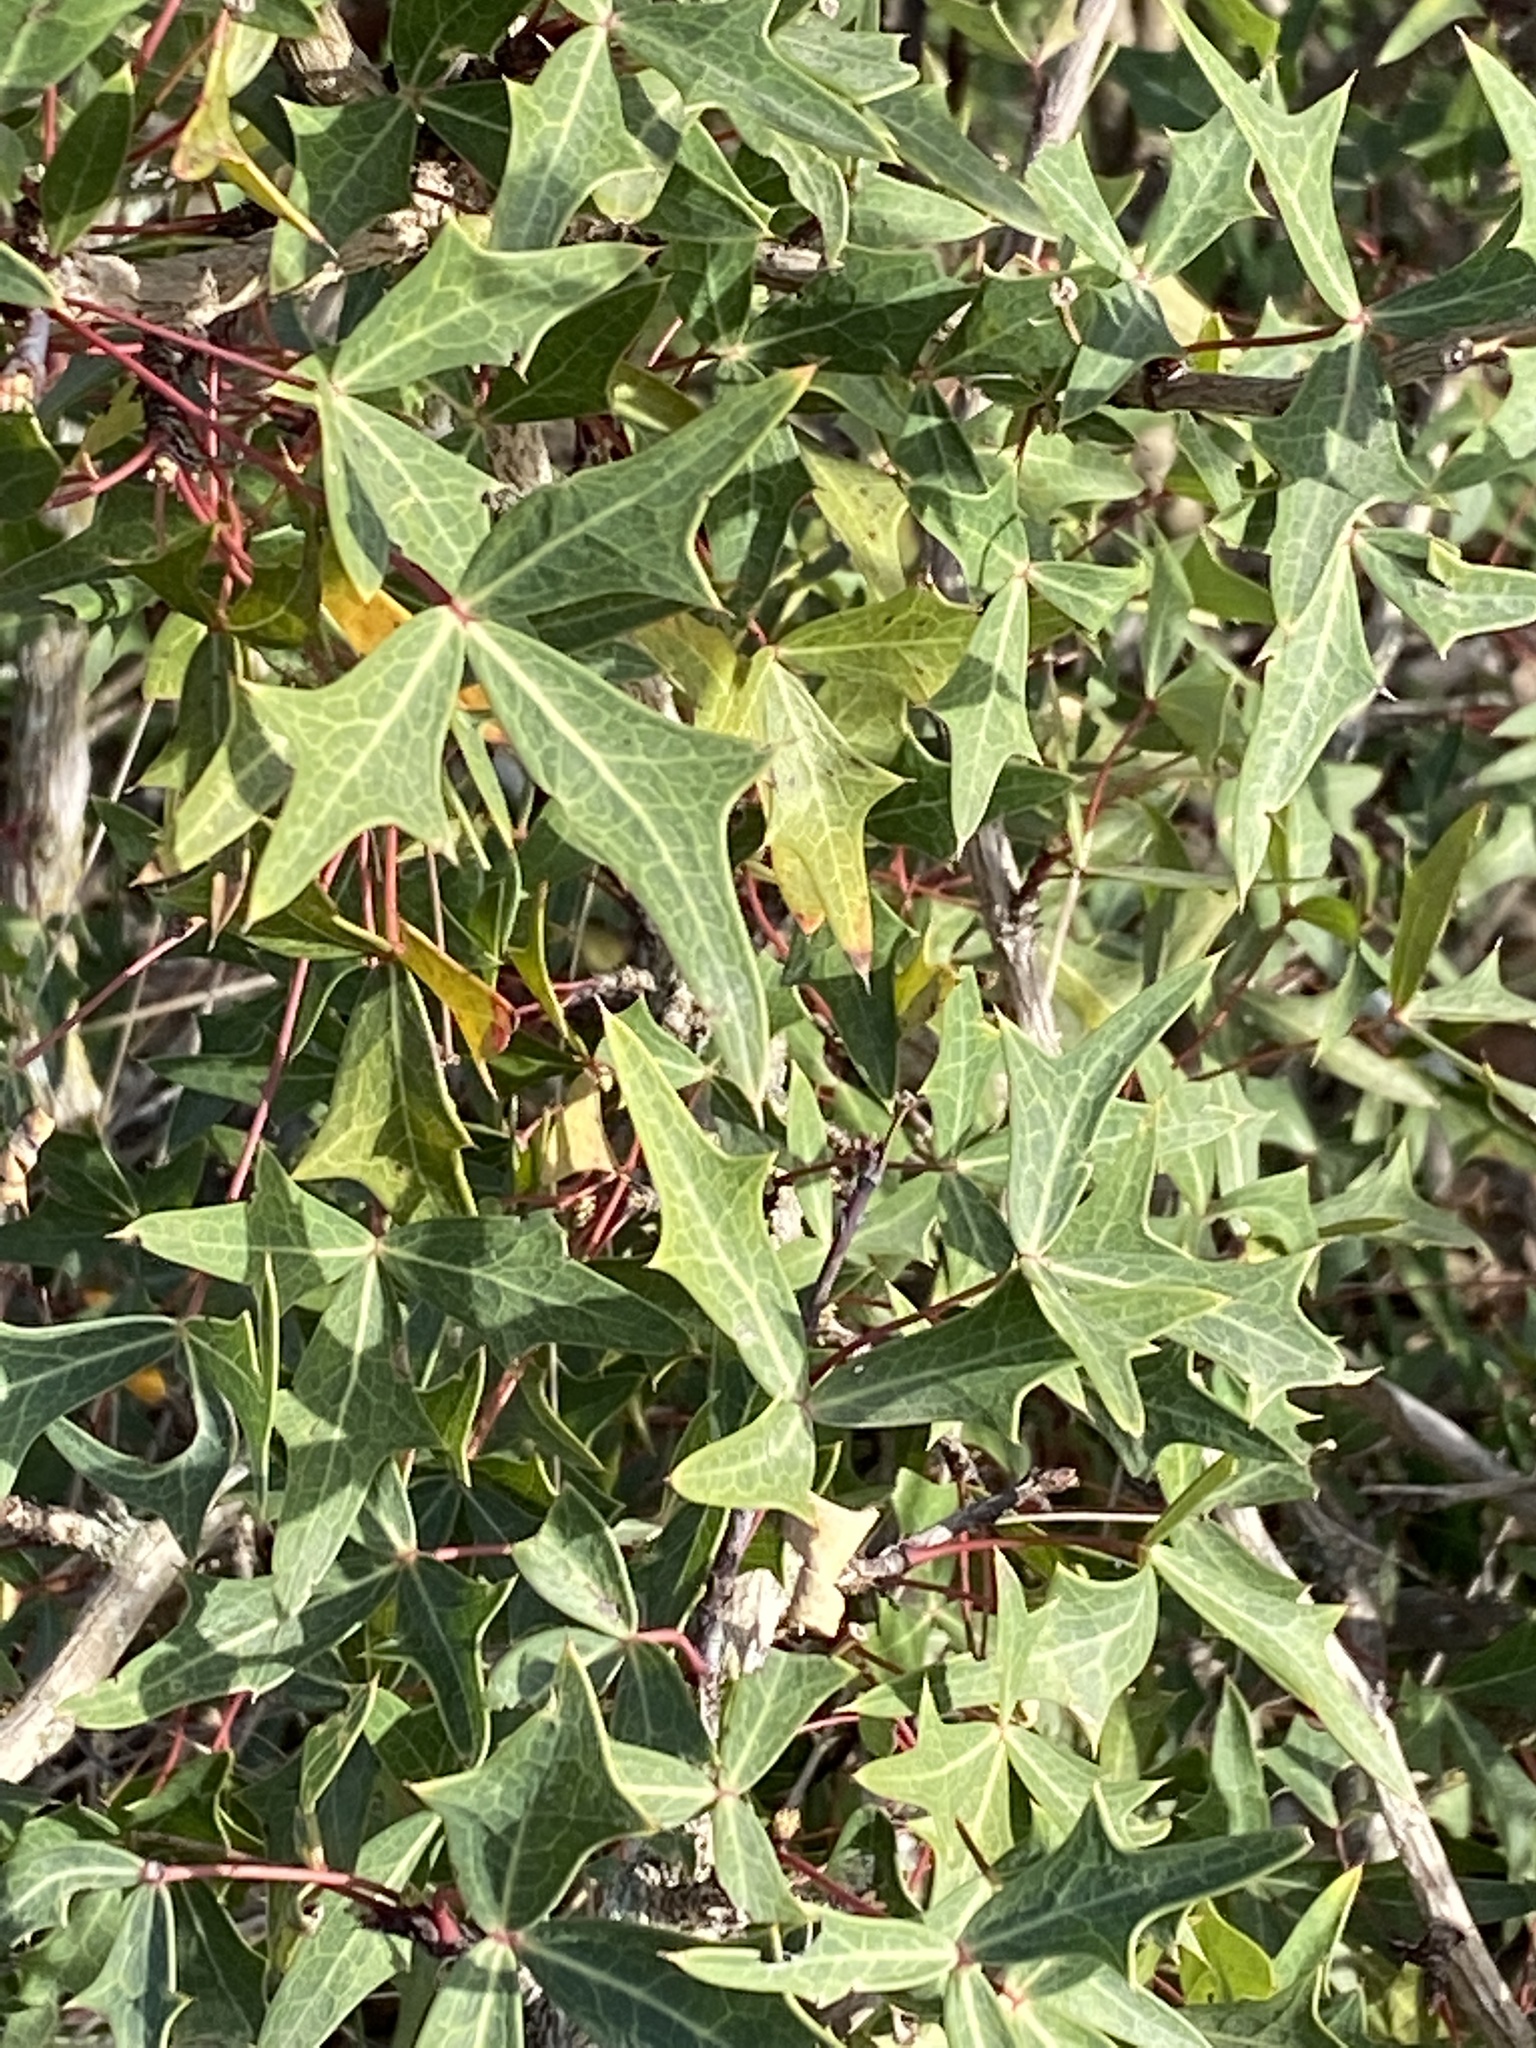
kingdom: Plantae
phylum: Tracheophyta
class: Magnoliopsida
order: Ranunculales
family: Berberidaceae
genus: Alloberberis
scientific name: Alloberberis trifoliolata
